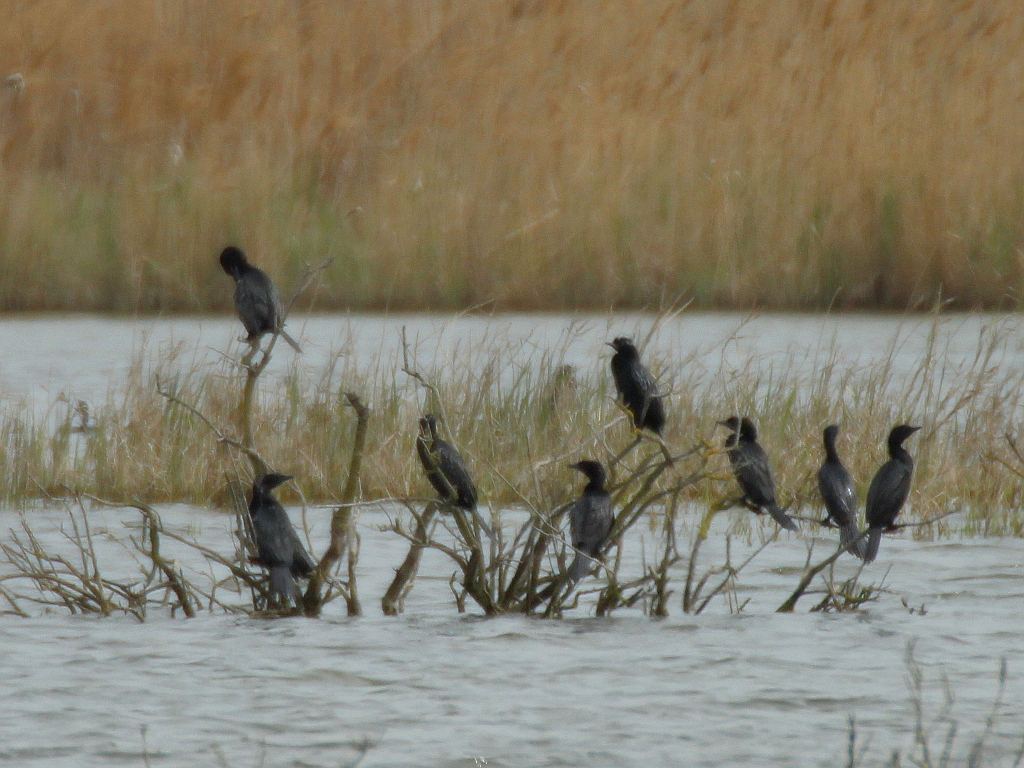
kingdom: Animalia
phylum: Chordata
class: Aves
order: Suliformes
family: Phalacrocoracidae
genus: Microcarbo
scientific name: Microcarbo pygmaeus
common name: Pygmy cormorant
